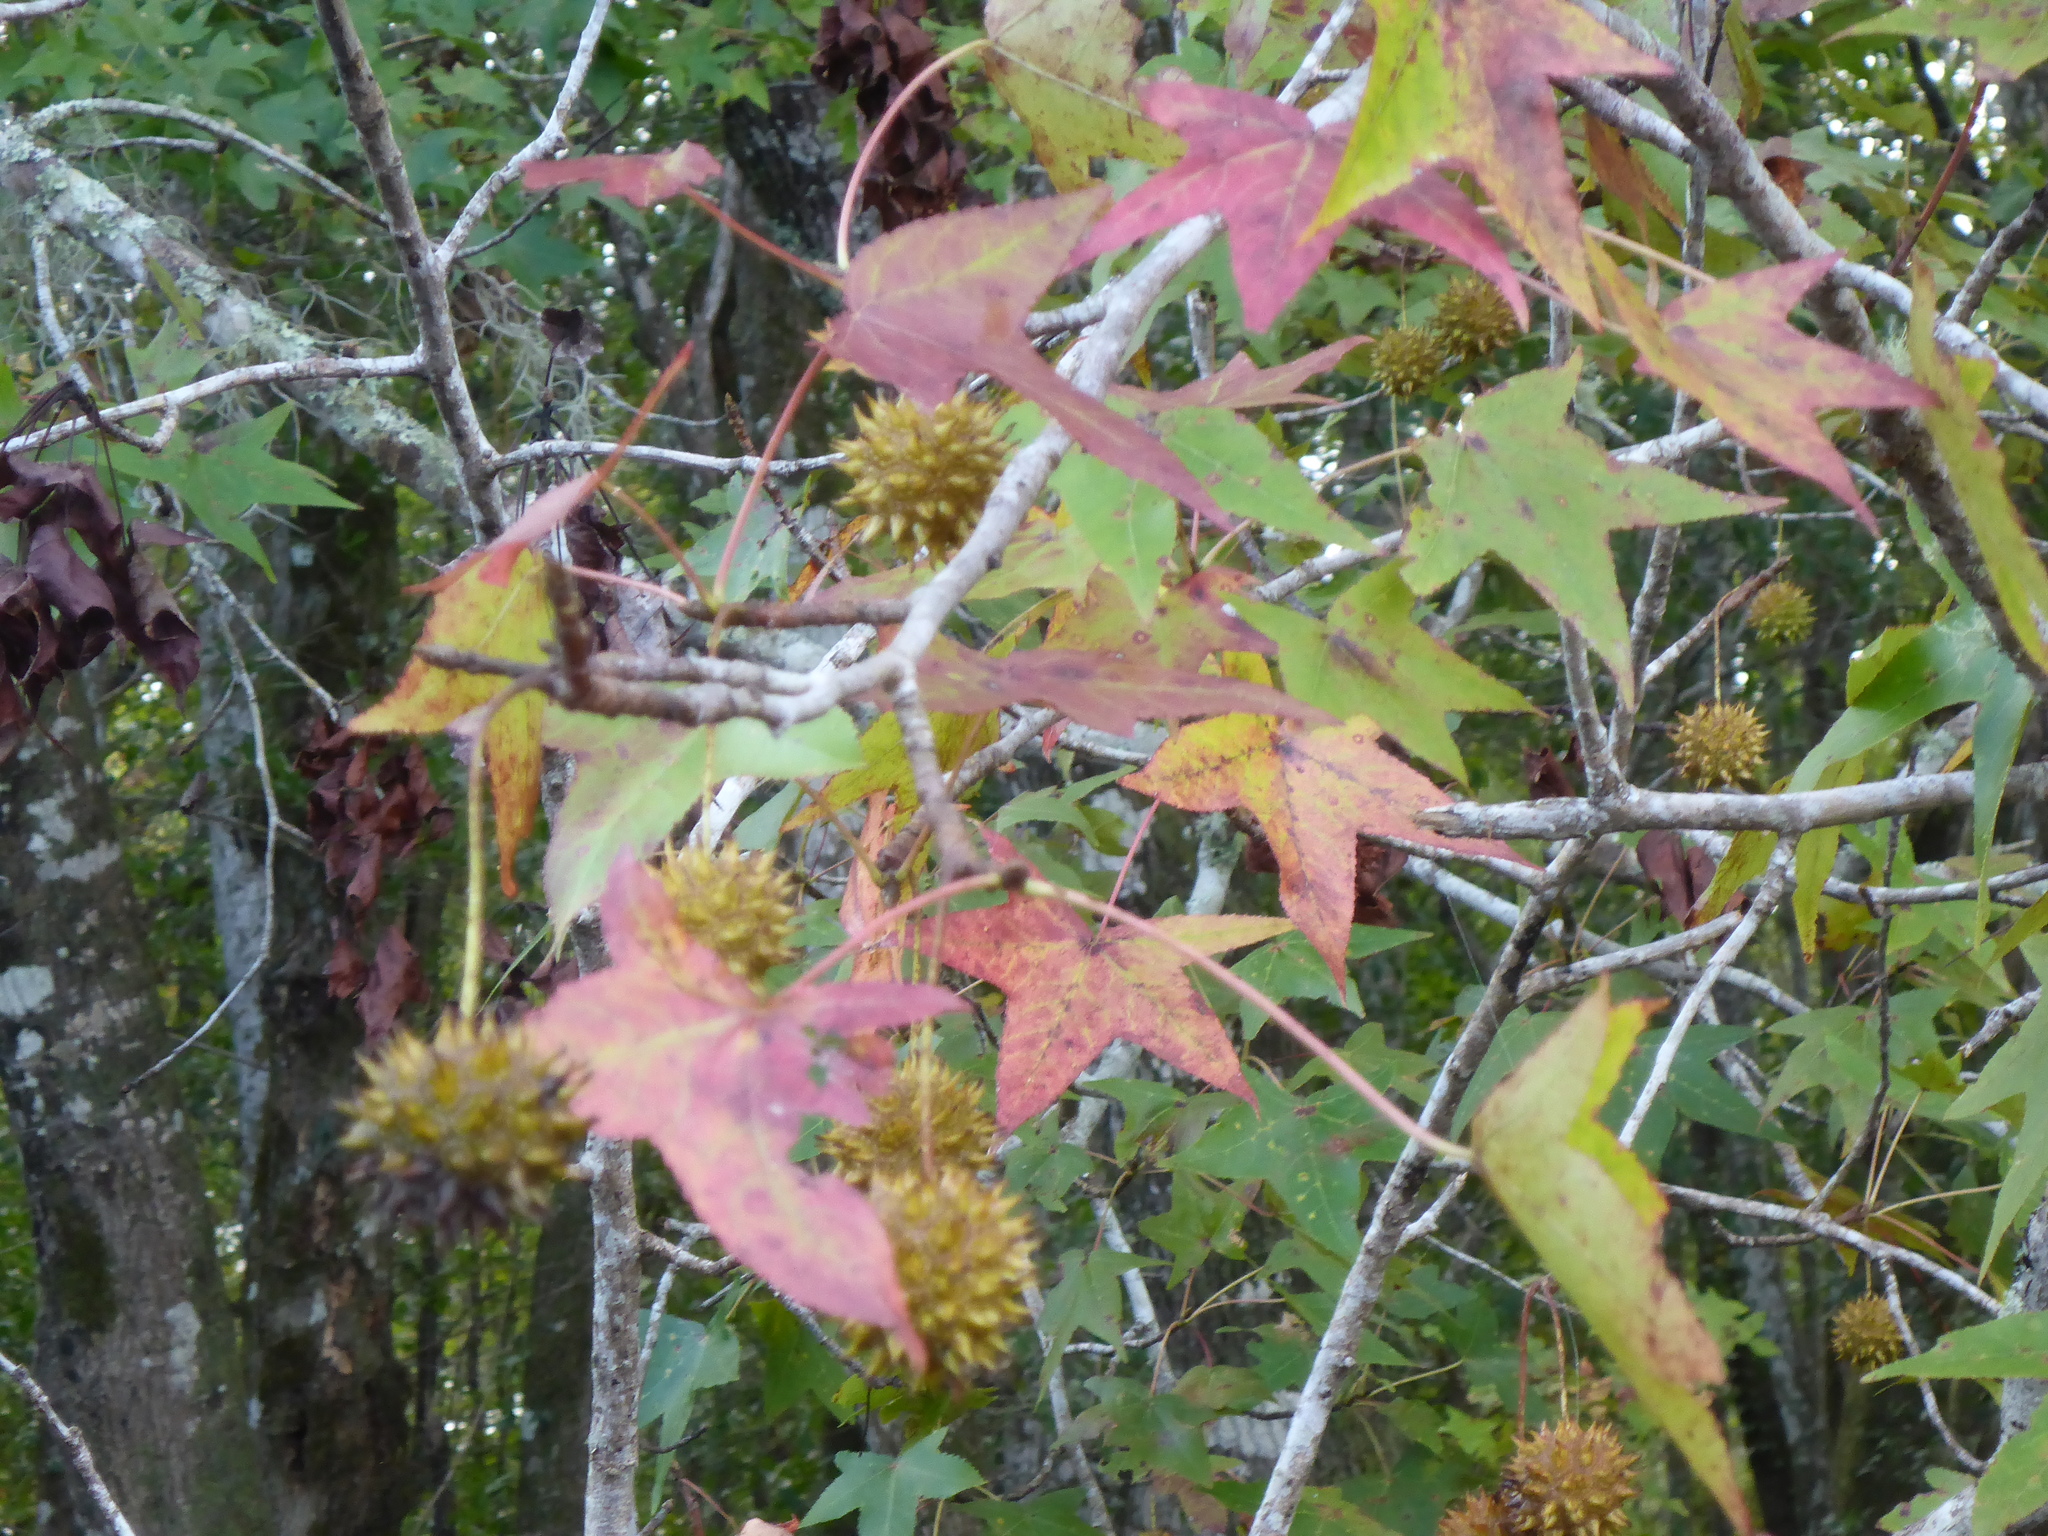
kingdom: Plantae
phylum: Tracheophyta
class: Magnoliopsida
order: Saxifragales
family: Altingiaceae
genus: Liquidambar
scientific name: Liquidambar styraciflua
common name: Sweet gum
